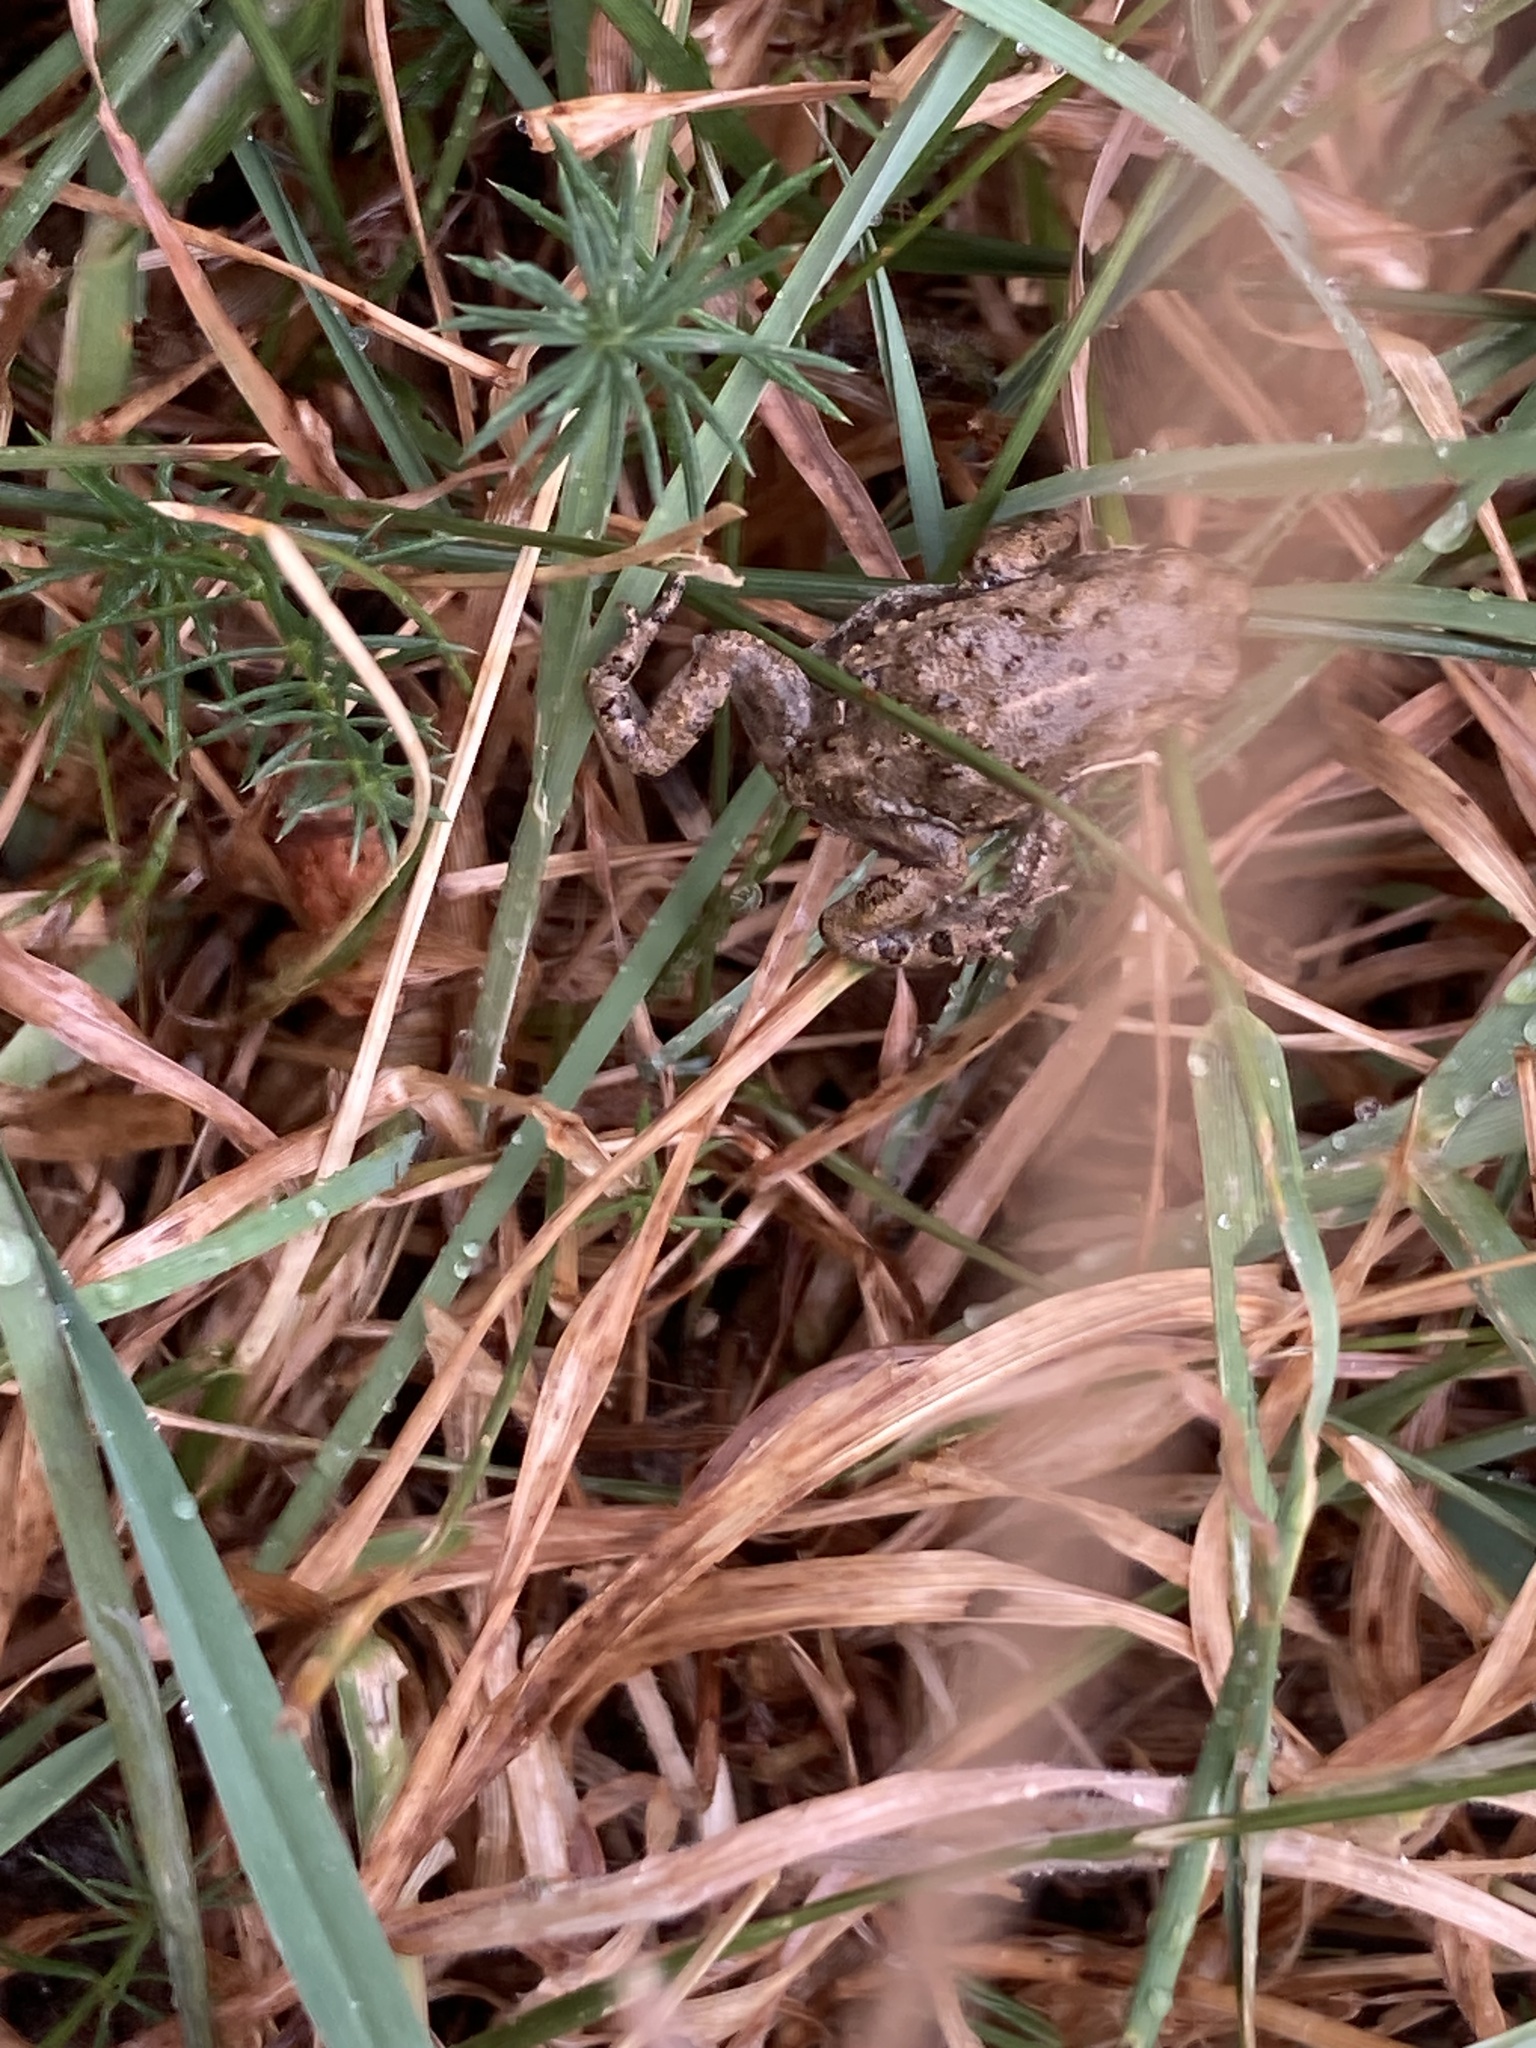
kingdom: Animalia
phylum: Chordata
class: Amphibia
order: Anura
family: Bufonidae
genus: Epidalea
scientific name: Epidalea calamita
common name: Natterjack toad
